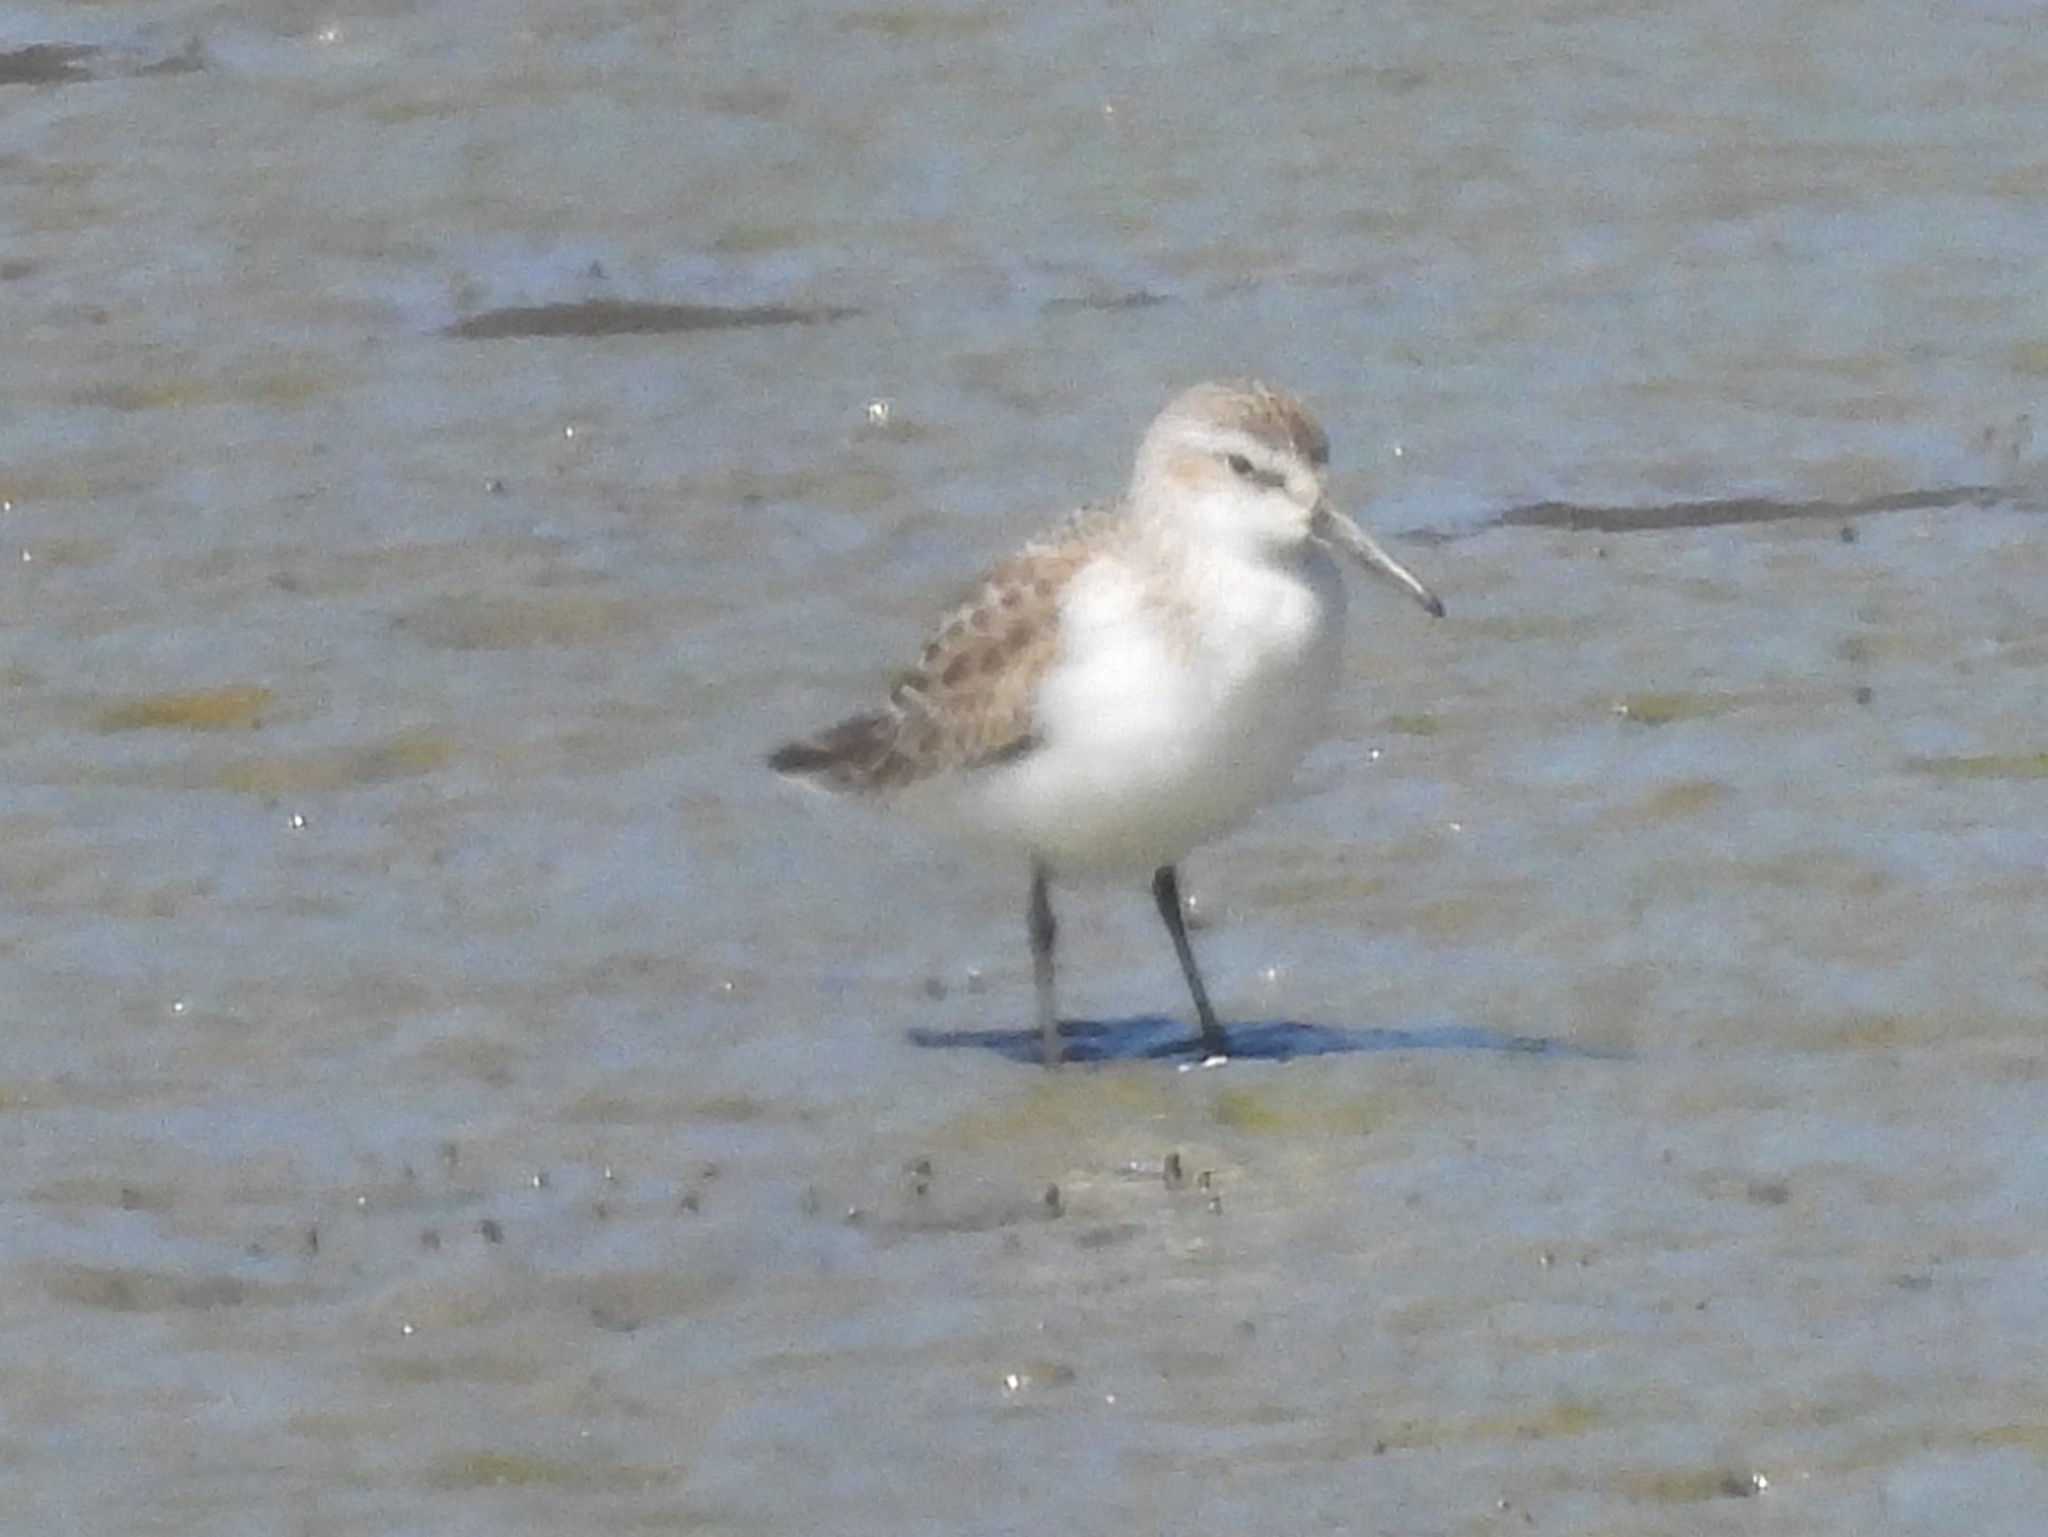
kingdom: Animalia
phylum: Chordata
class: Aves
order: Charadriiformes
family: Scolopacidae
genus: Calidris
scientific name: Calidris mauri
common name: Western sandpiper
